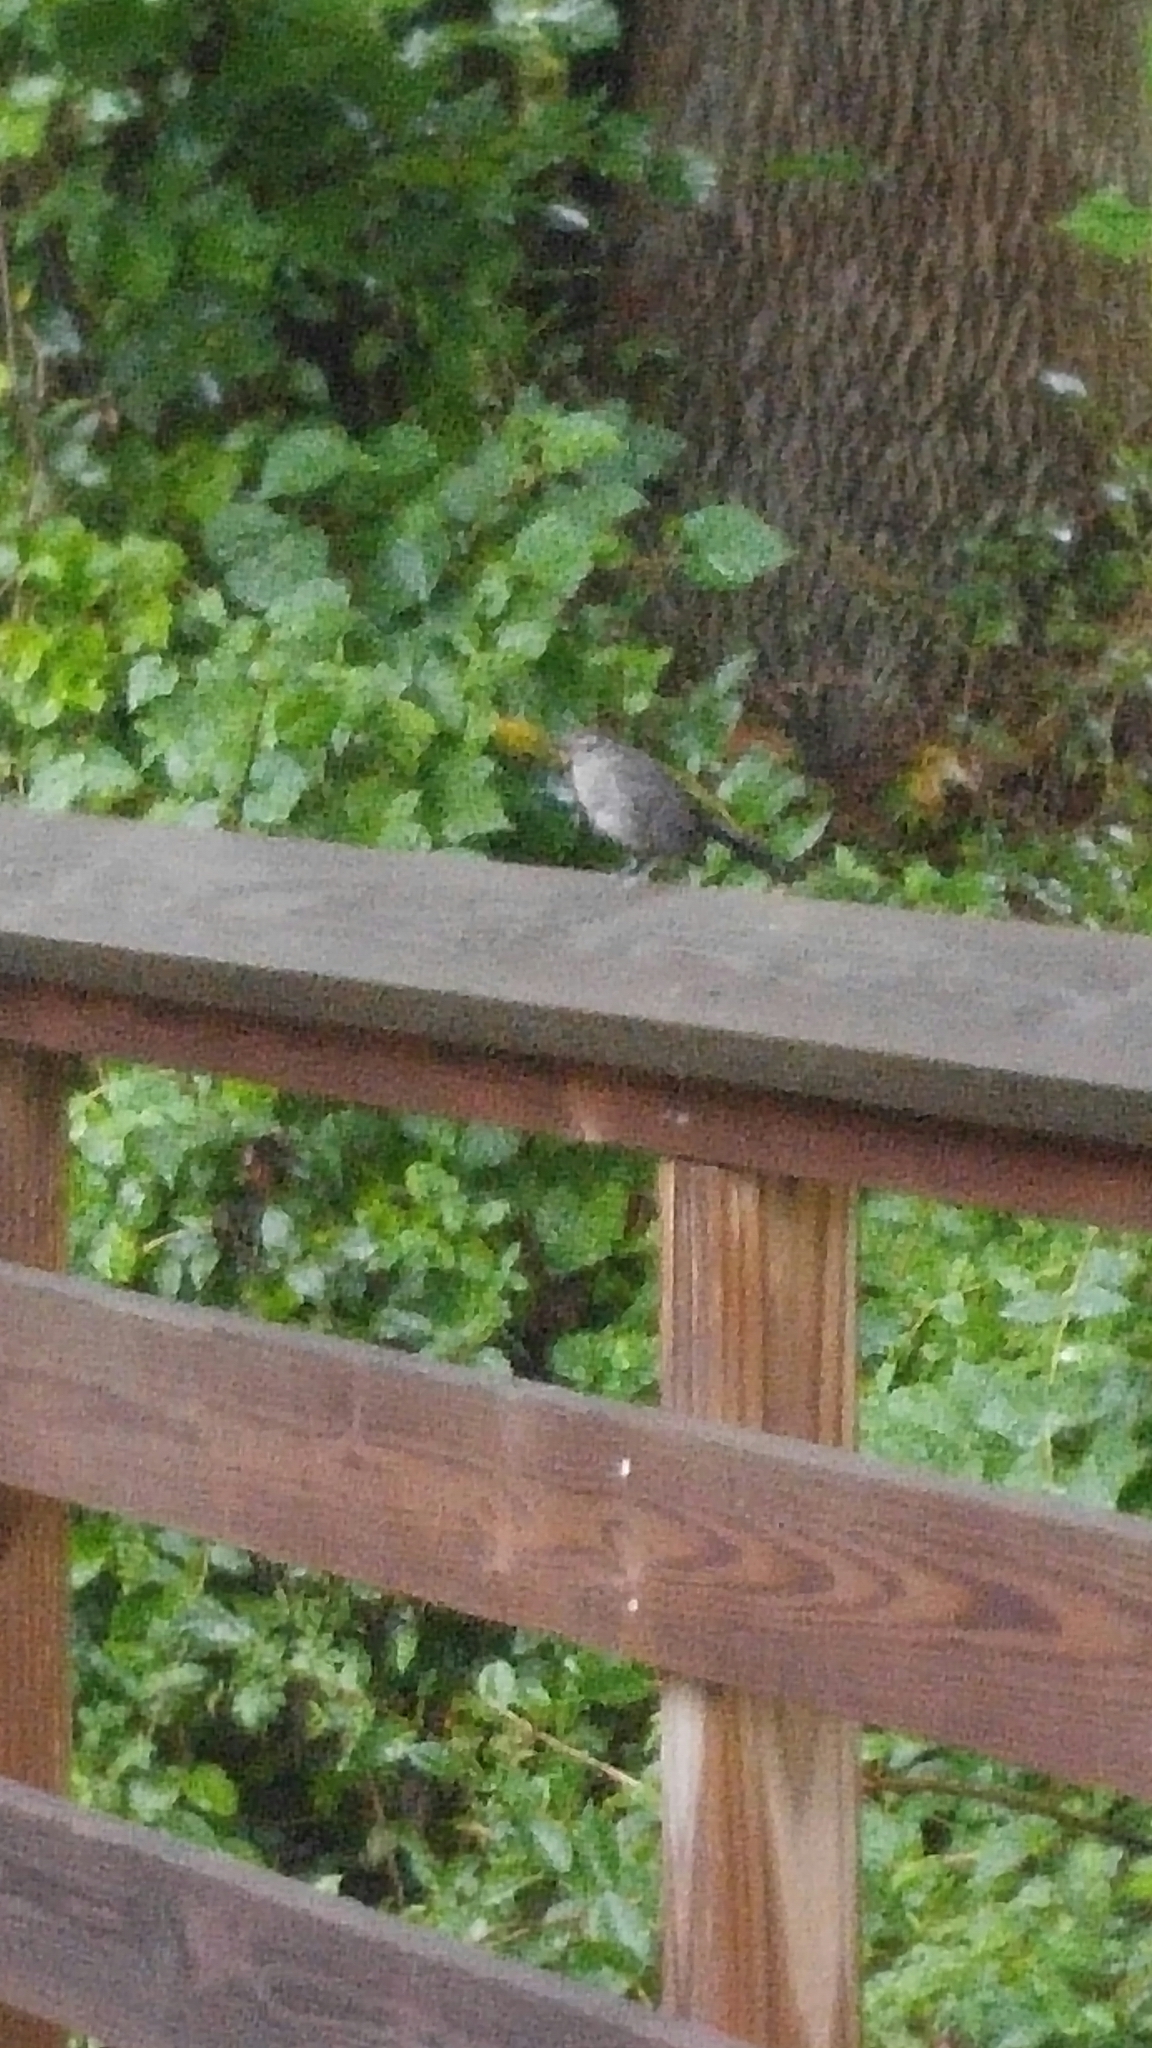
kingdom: Animalia
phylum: Chordata
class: Aves
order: Passeriformes
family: Mimidae
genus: Dumetella
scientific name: Dumetella carolinensis
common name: Gray catbird
